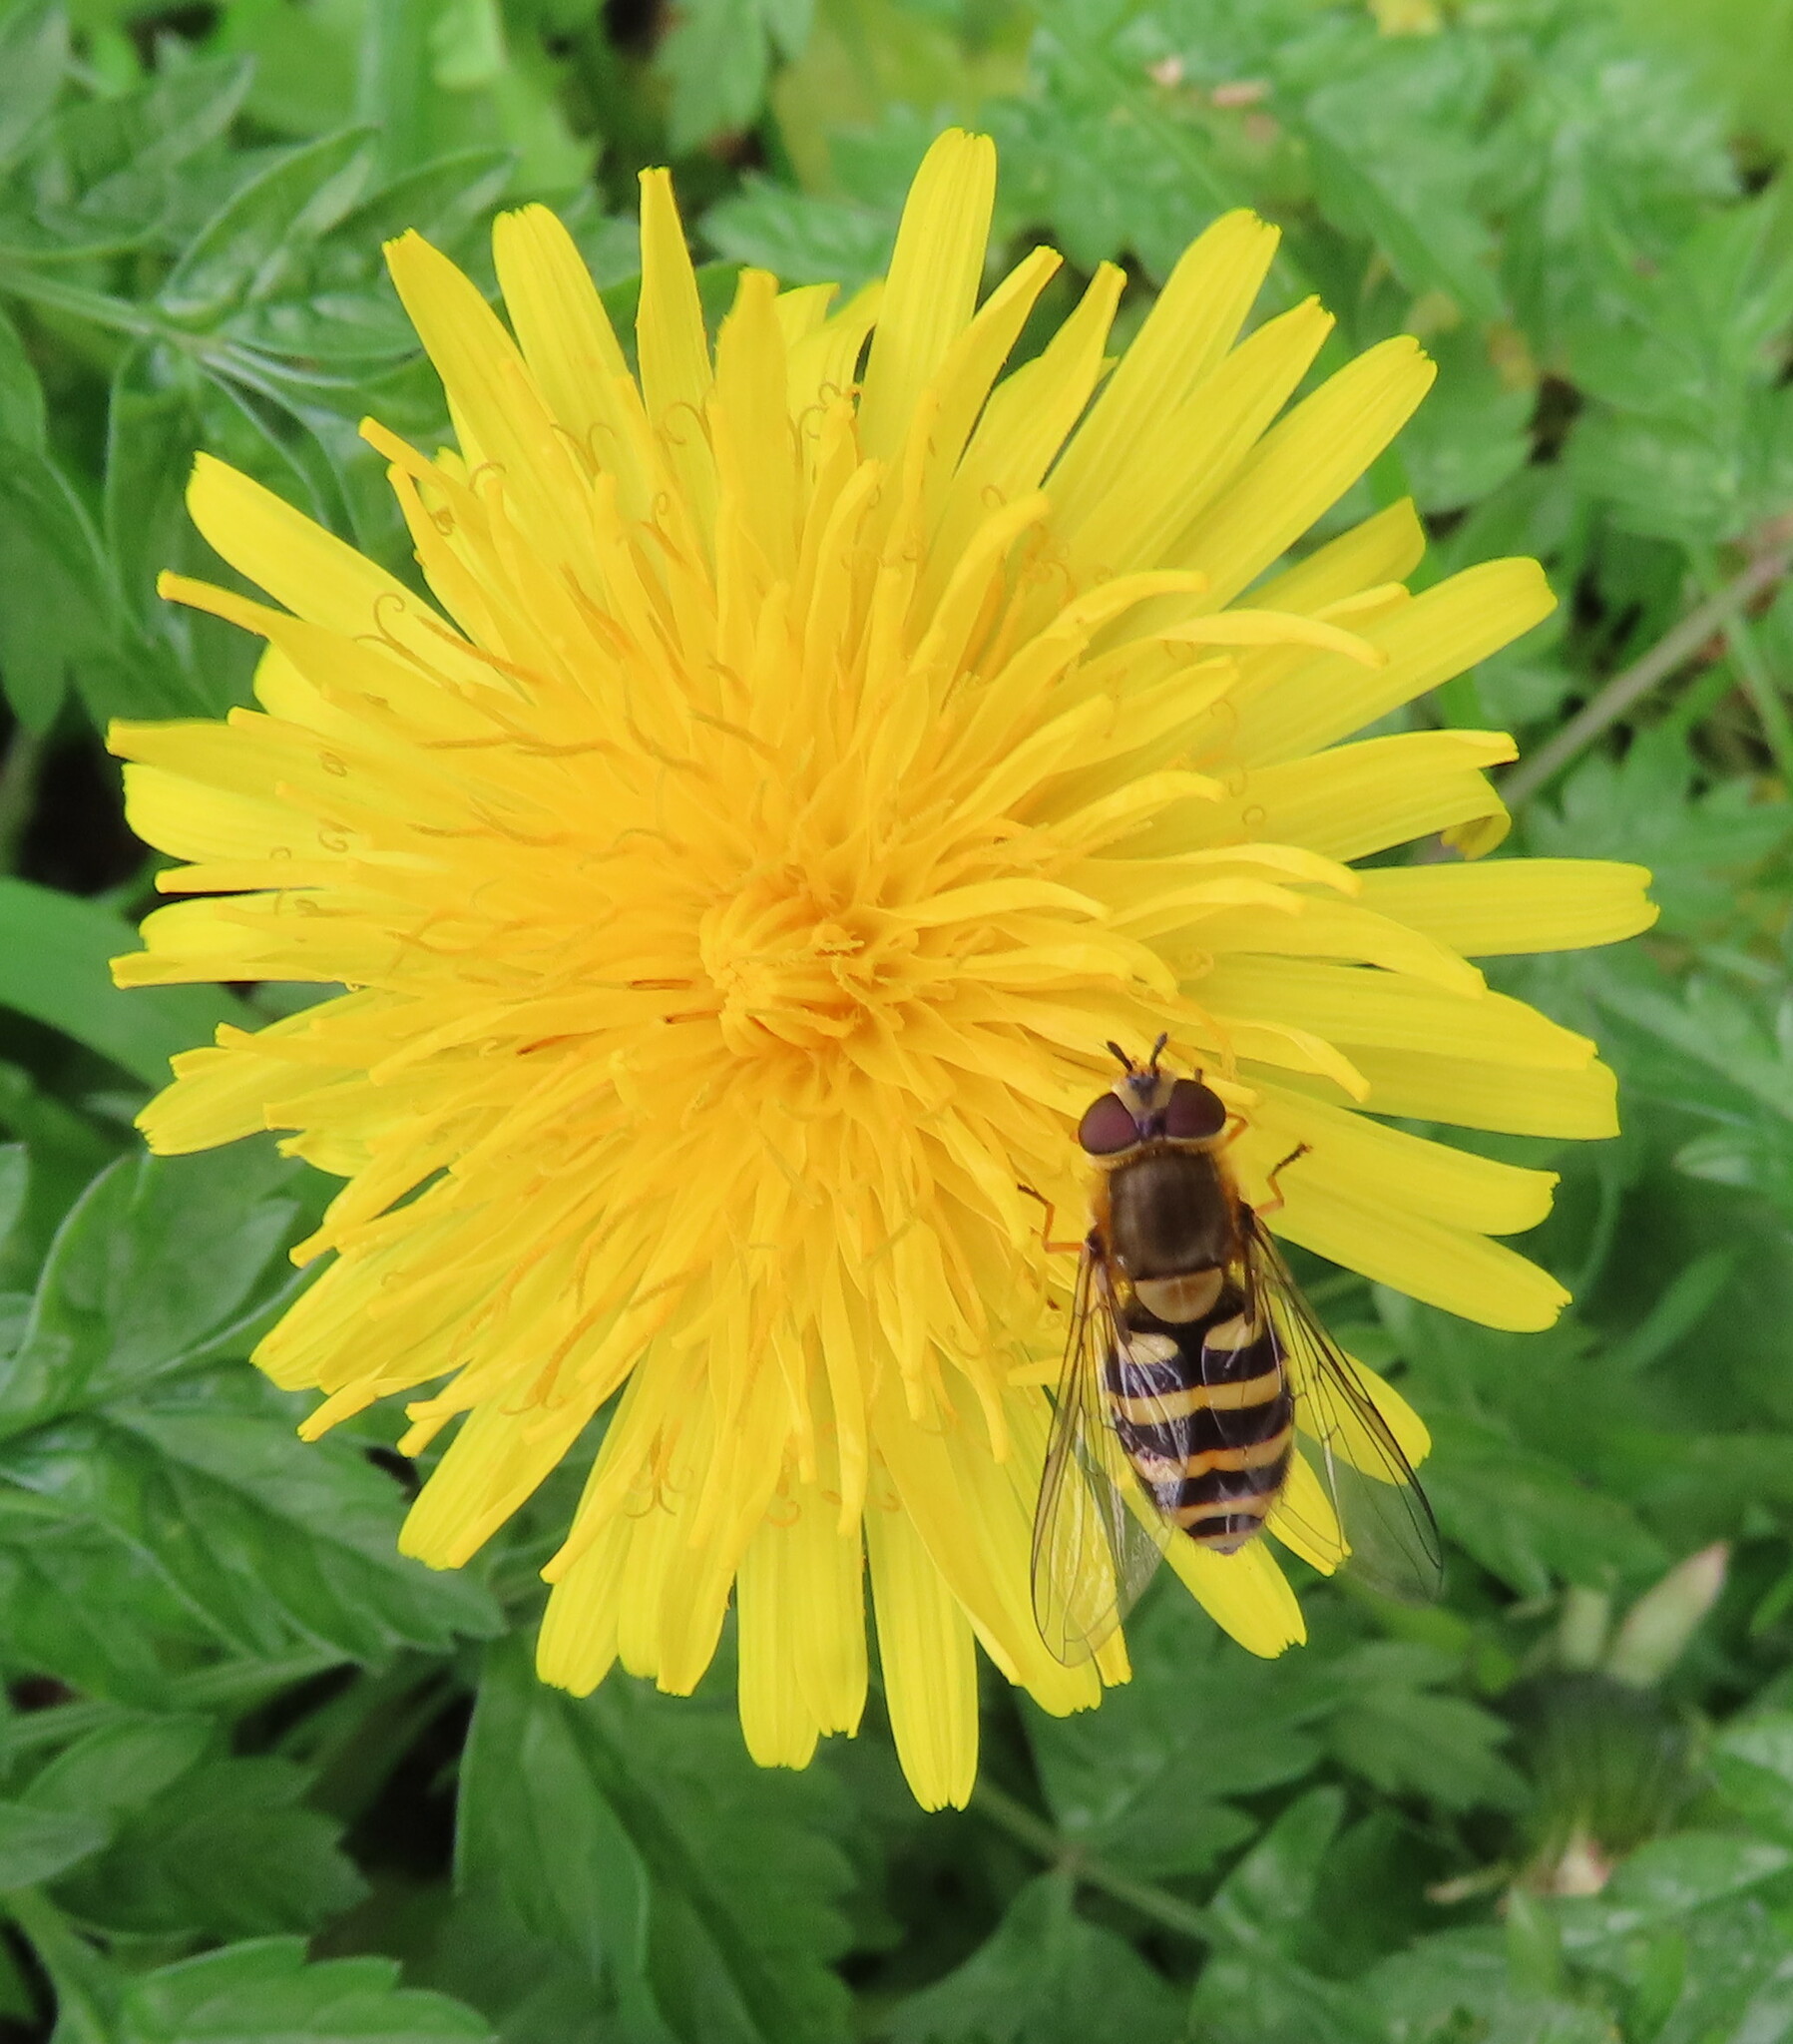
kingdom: Animalia
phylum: Arthropoda
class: Insecta
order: Diptera
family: Syrphidae
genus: Syrphus
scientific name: Syrphus
